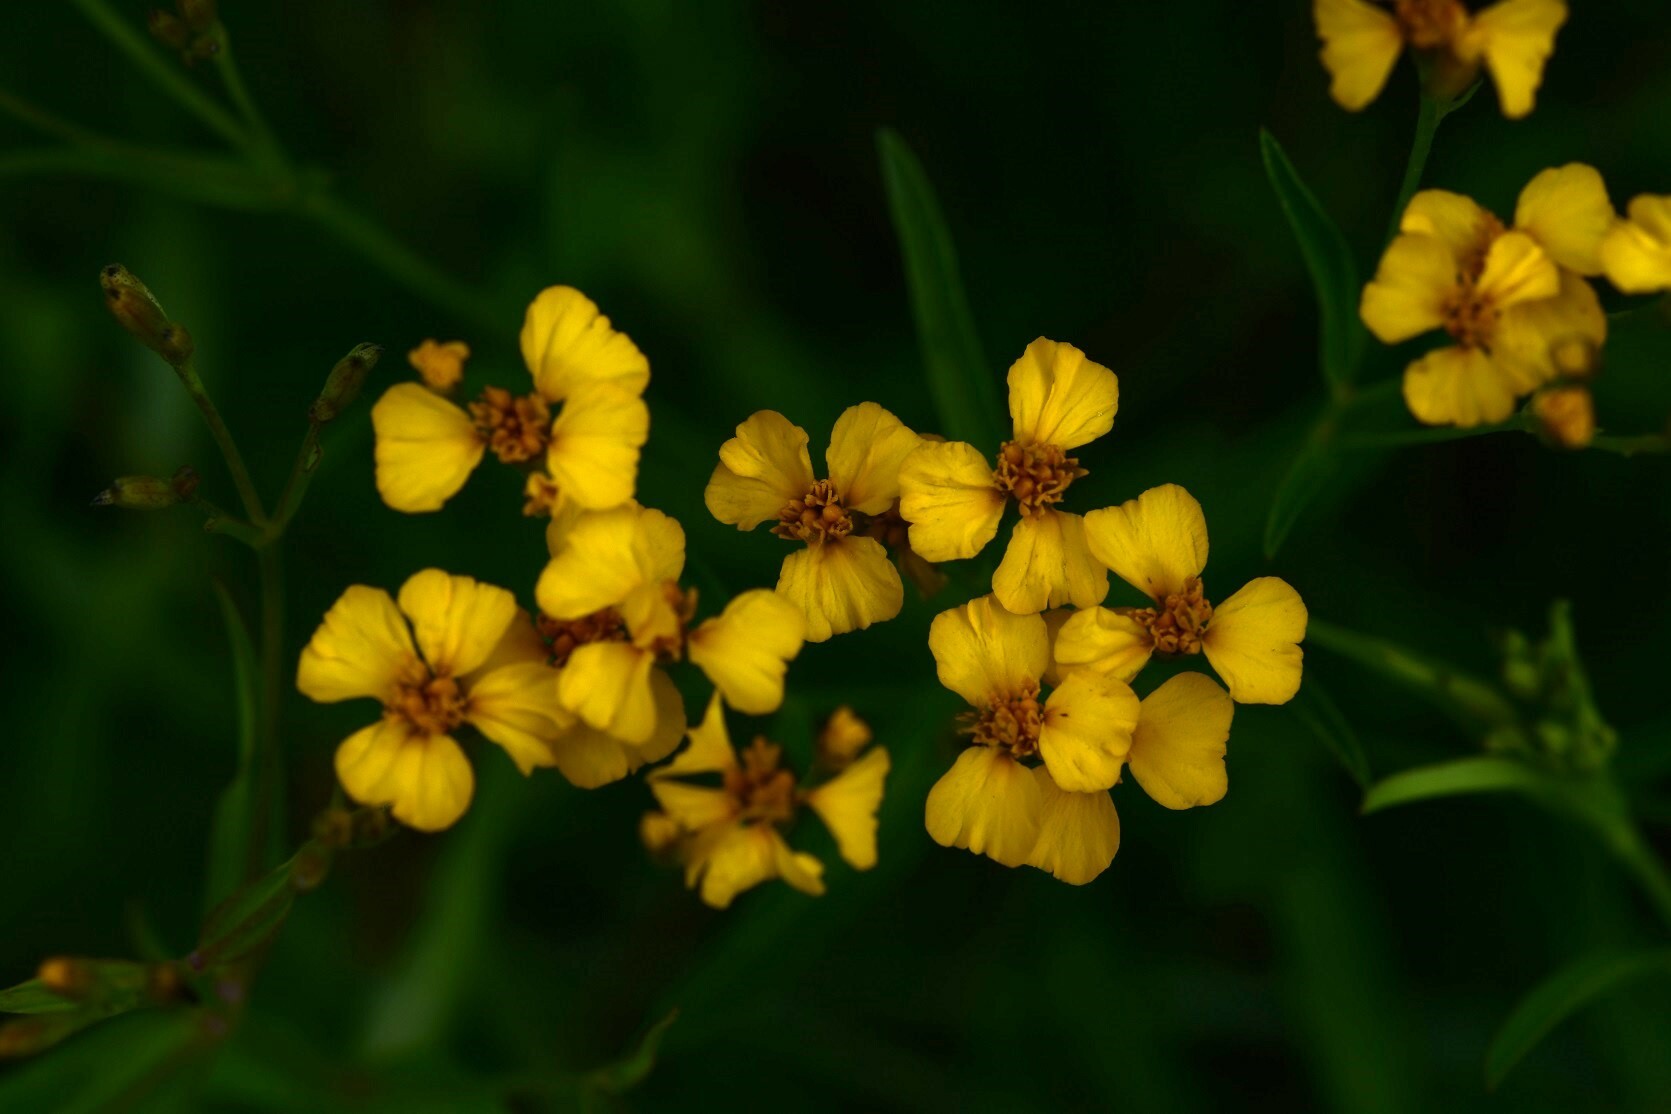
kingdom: Plantae
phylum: Tracheophyta
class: Magnoliopsida
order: Asterales
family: Asteraceae
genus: Tagetes
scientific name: Tagetes lucida
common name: Sweetscented marigold
